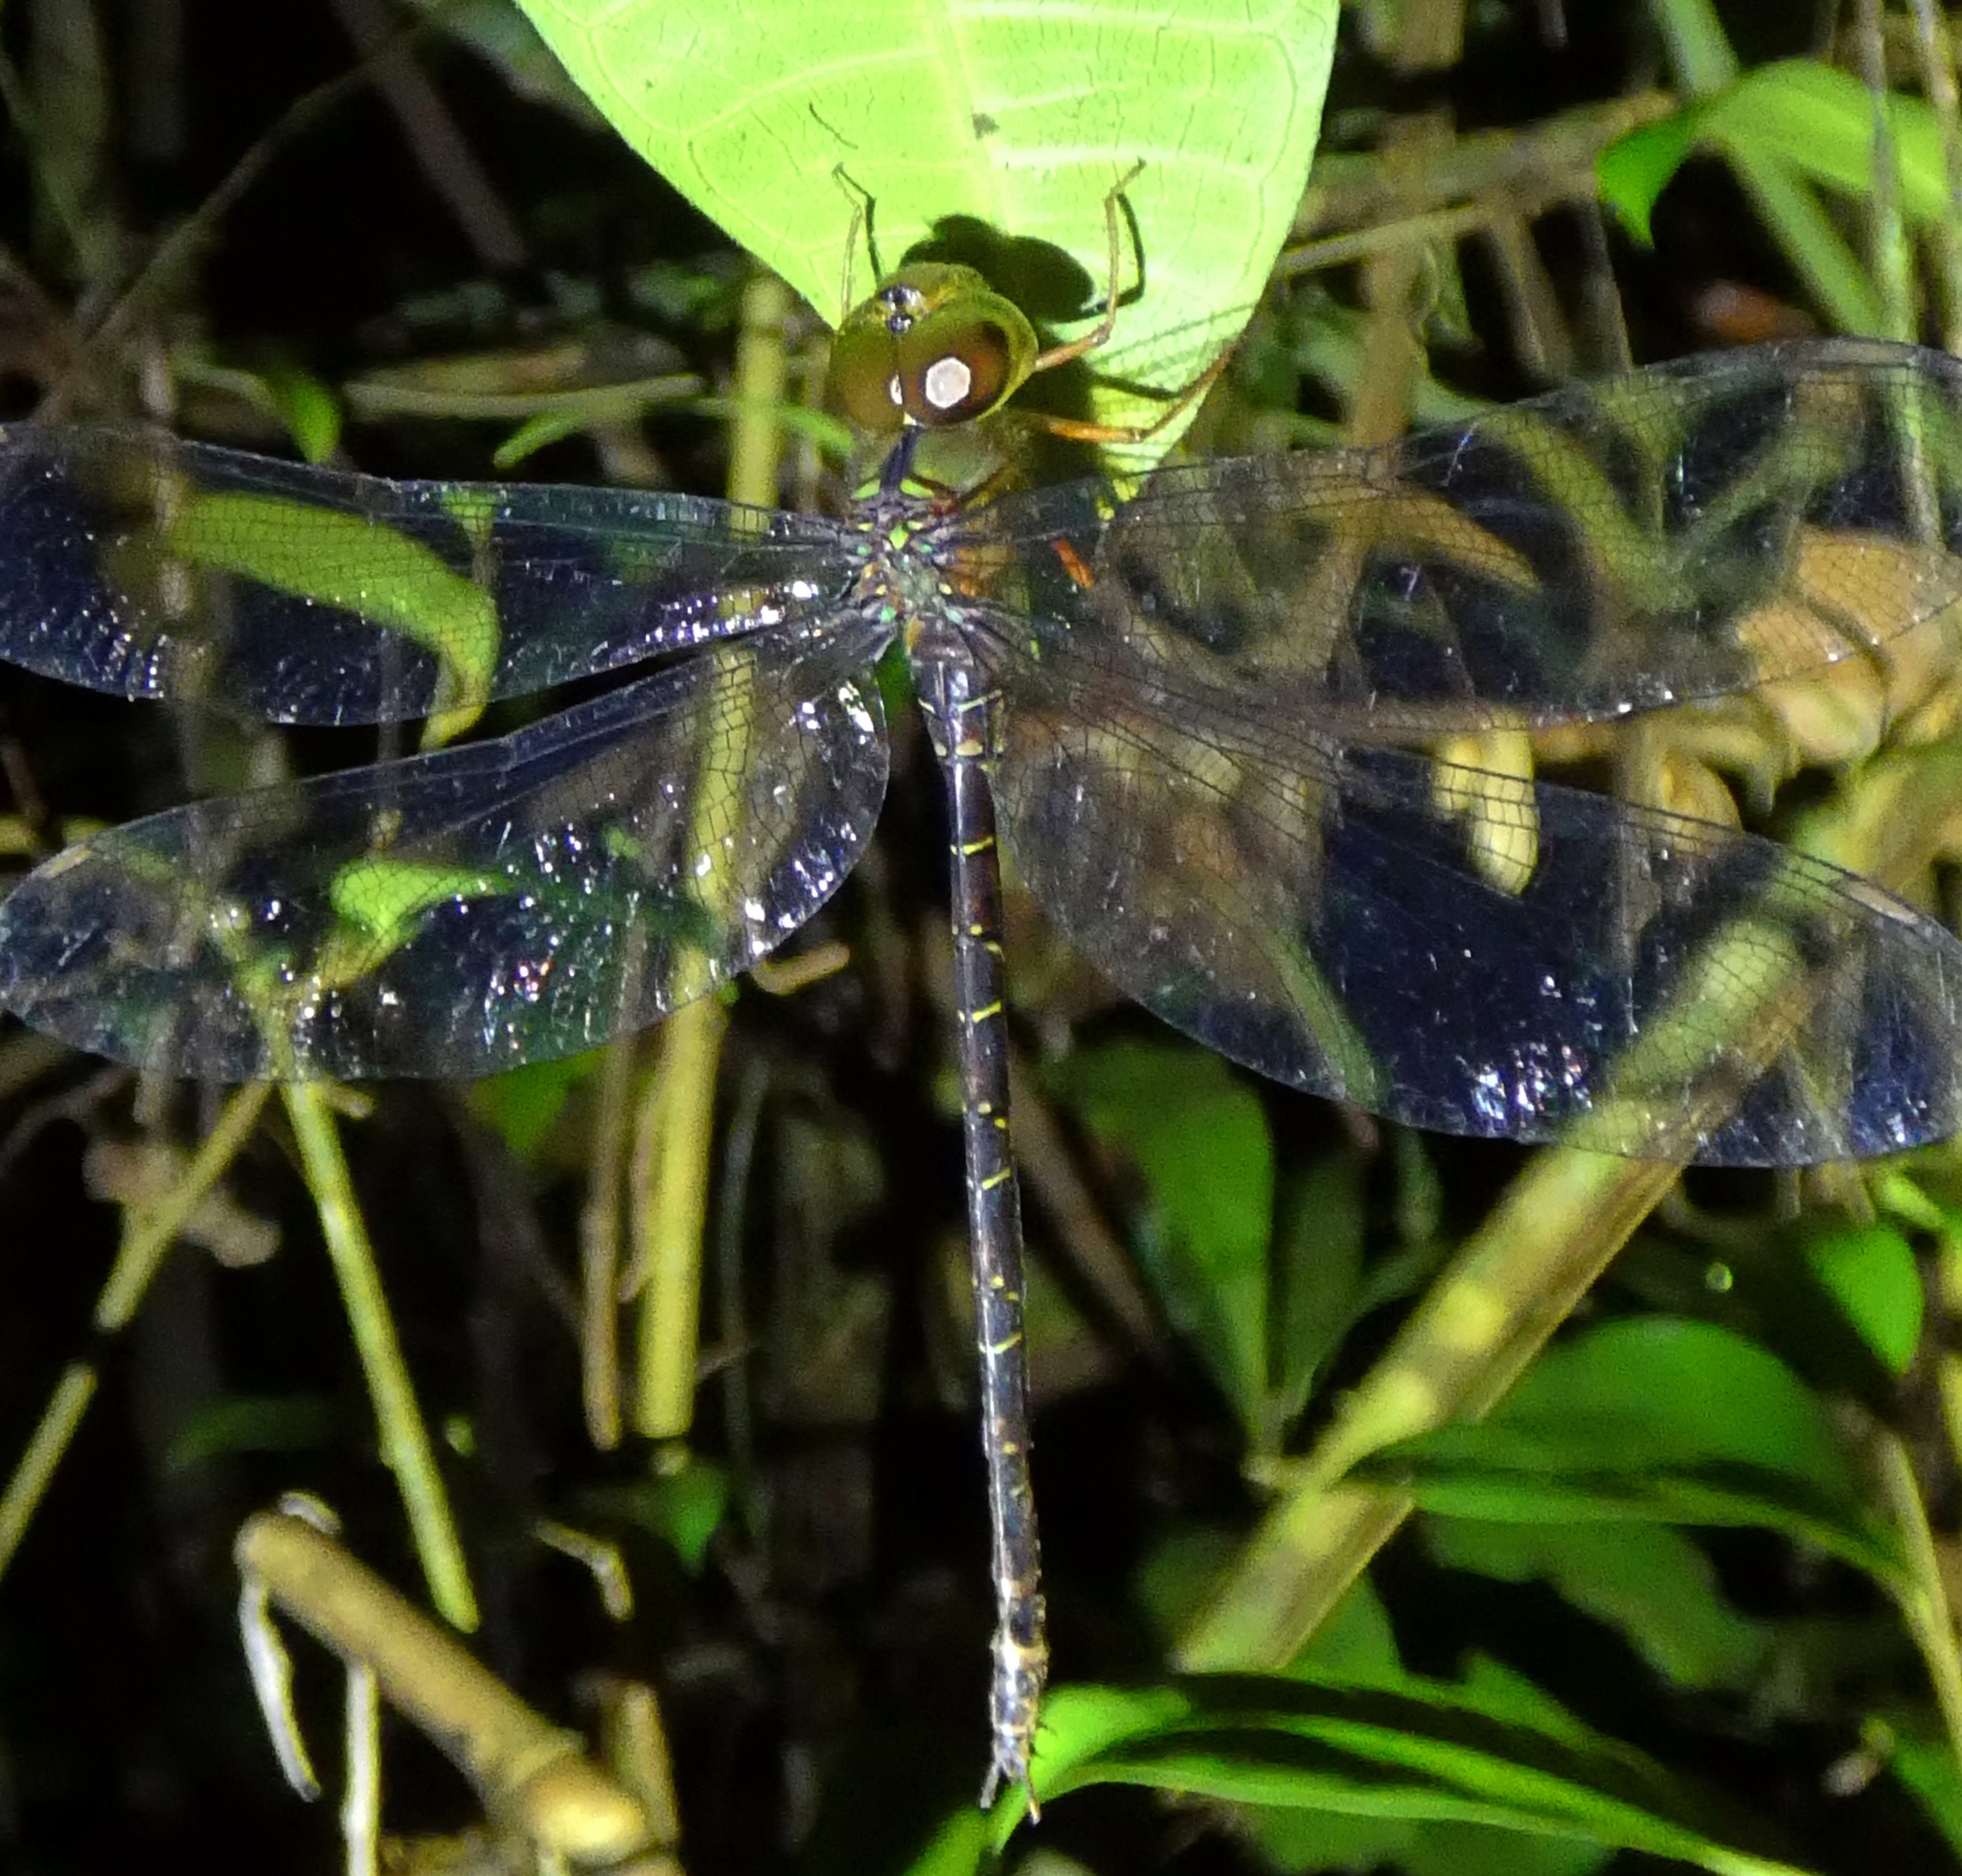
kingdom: Animalia
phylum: Arthropoda
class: Insecta
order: Odonata
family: Aeshnidae
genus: Gynacantha
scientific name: Gynacantha dobsoni
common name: Lesser duskhawker
